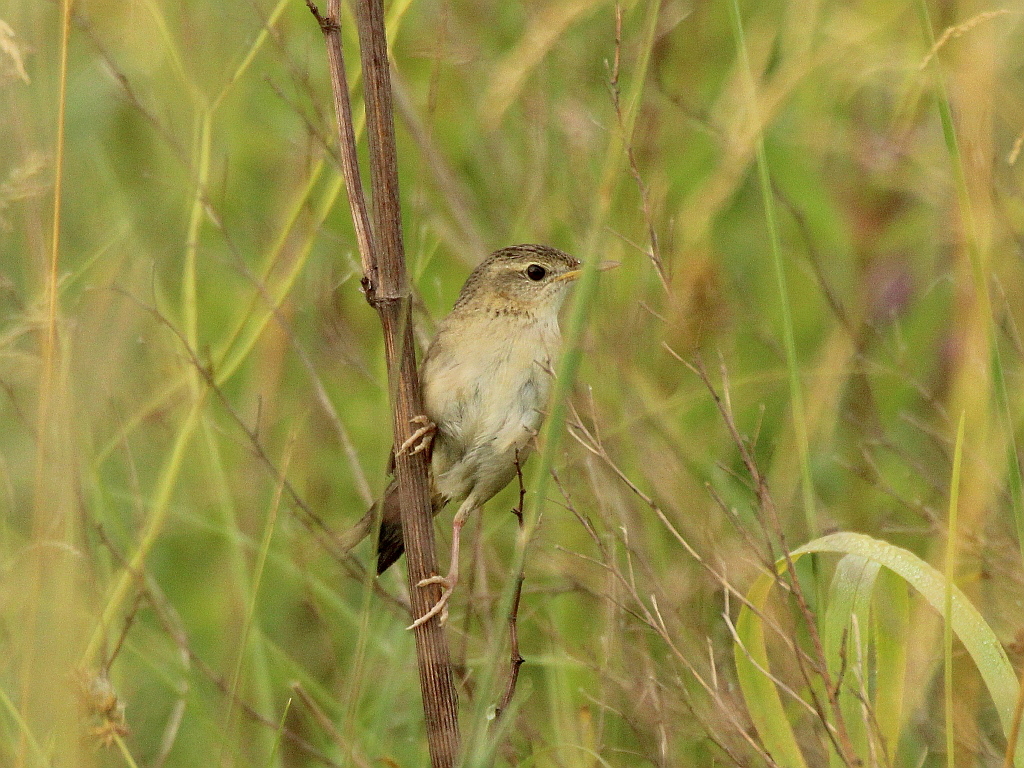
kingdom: Animalia
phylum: Chordata
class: Aves
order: Passeriformes
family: Locustellidae
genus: Locustella
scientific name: Locustella naevia
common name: Common grasshopper warbler
